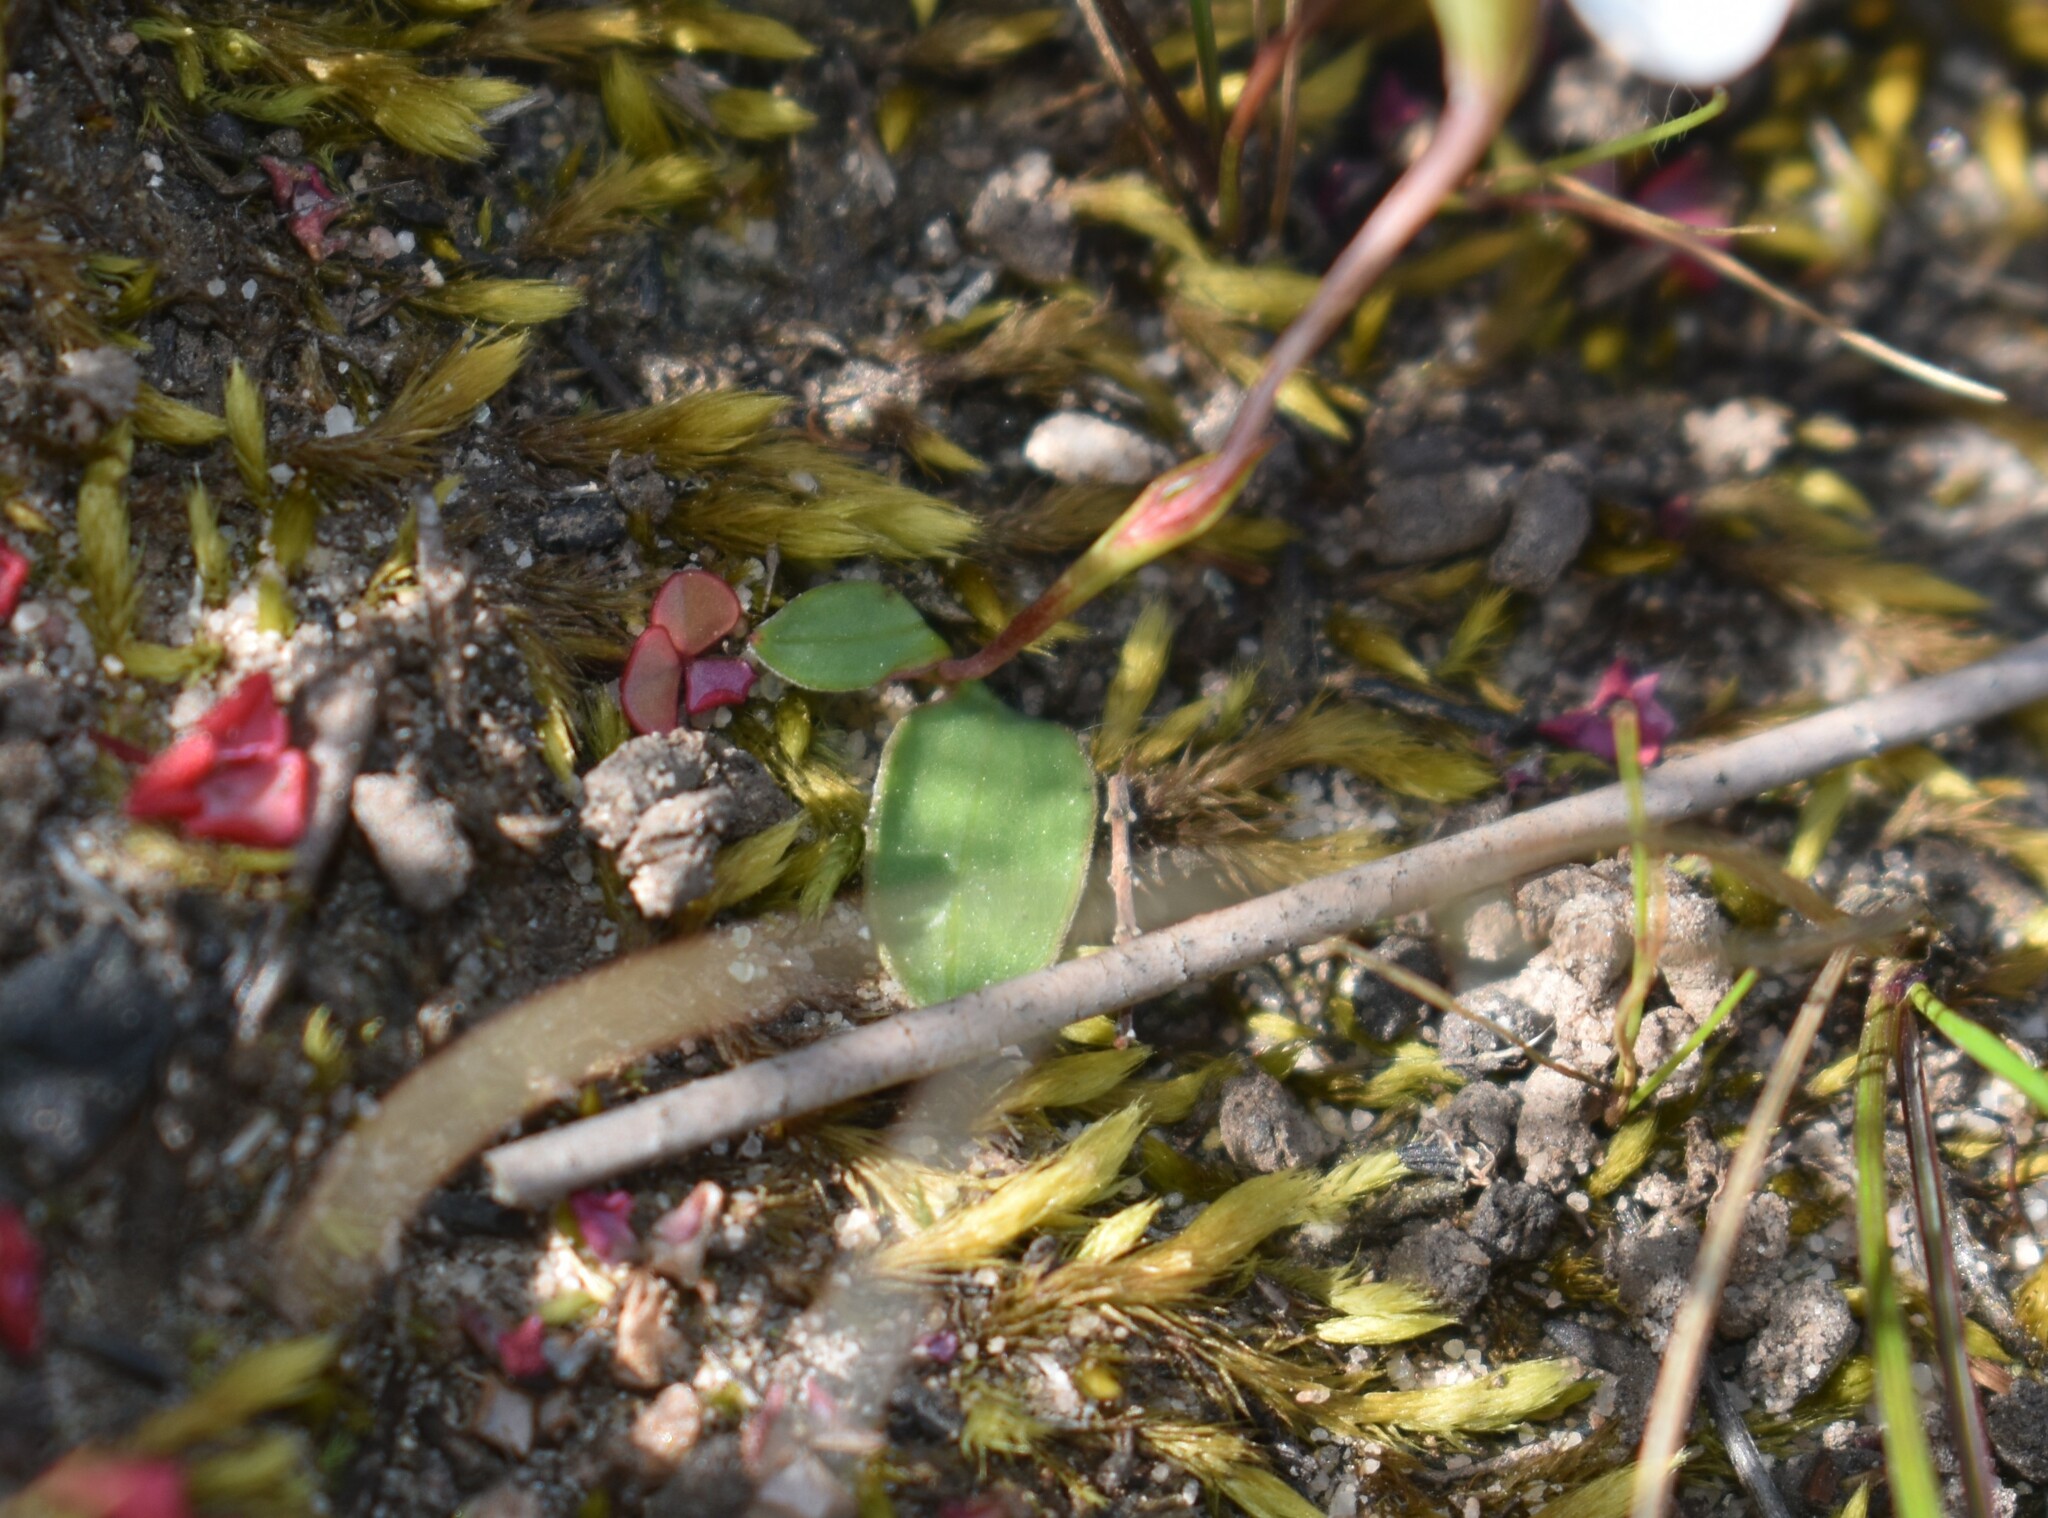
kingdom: Plantae
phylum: Tracheophyta
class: Liliopsida
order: Asparagales
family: Iridaceae
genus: Geissorhiza
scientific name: Geissorhiza ovata
